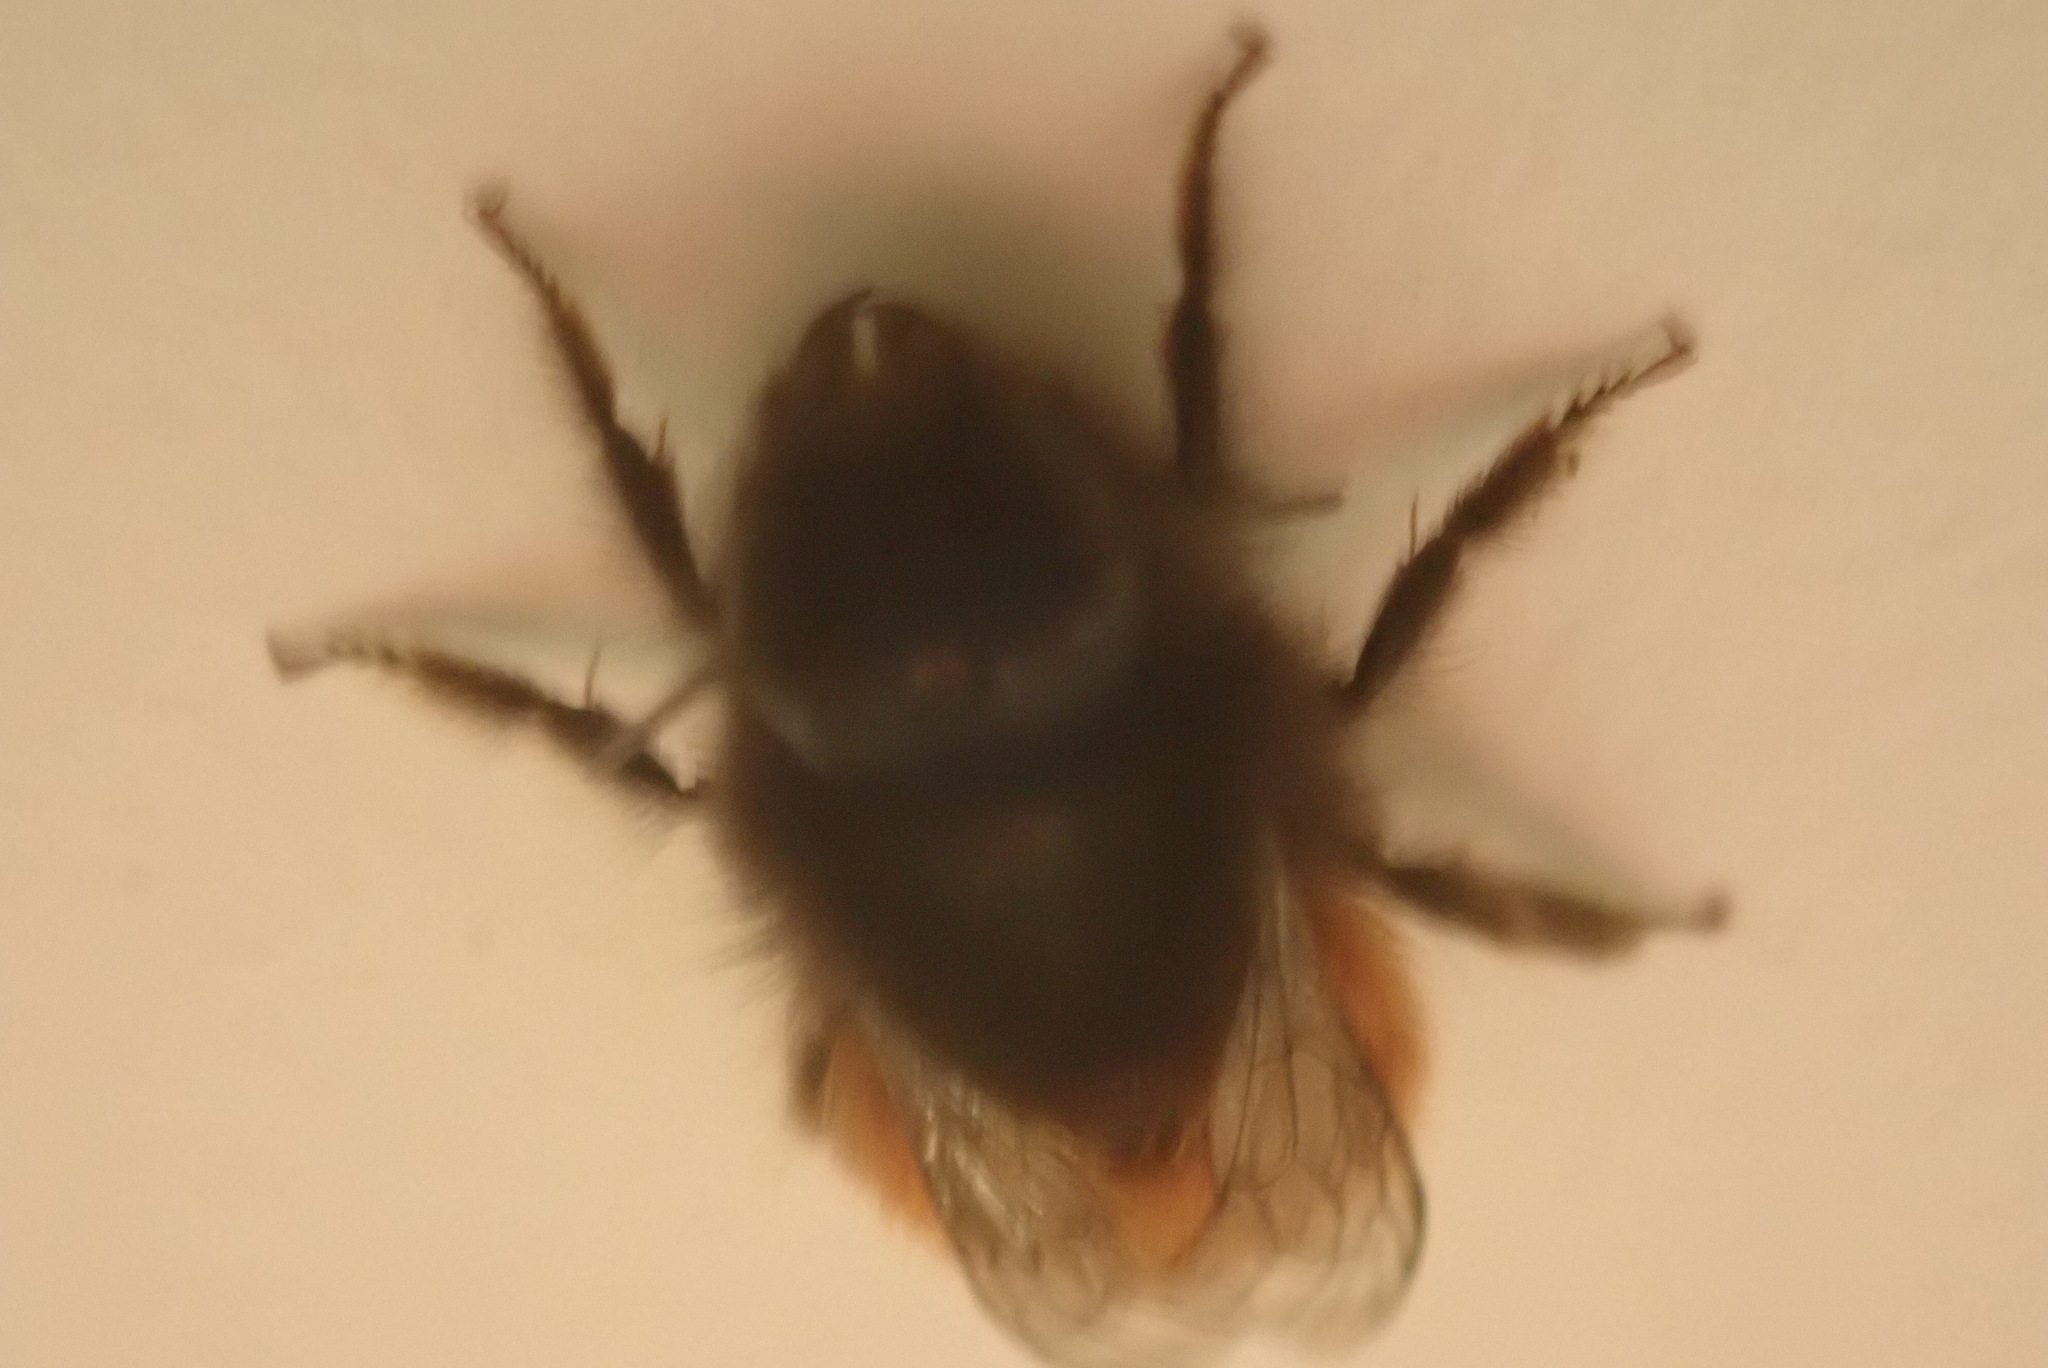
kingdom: Animalia
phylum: Arthropoda
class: Insecta
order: Hymenoptera
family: Megachilidae
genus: Osmia
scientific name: Osmia cornuta
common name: Mason bee
